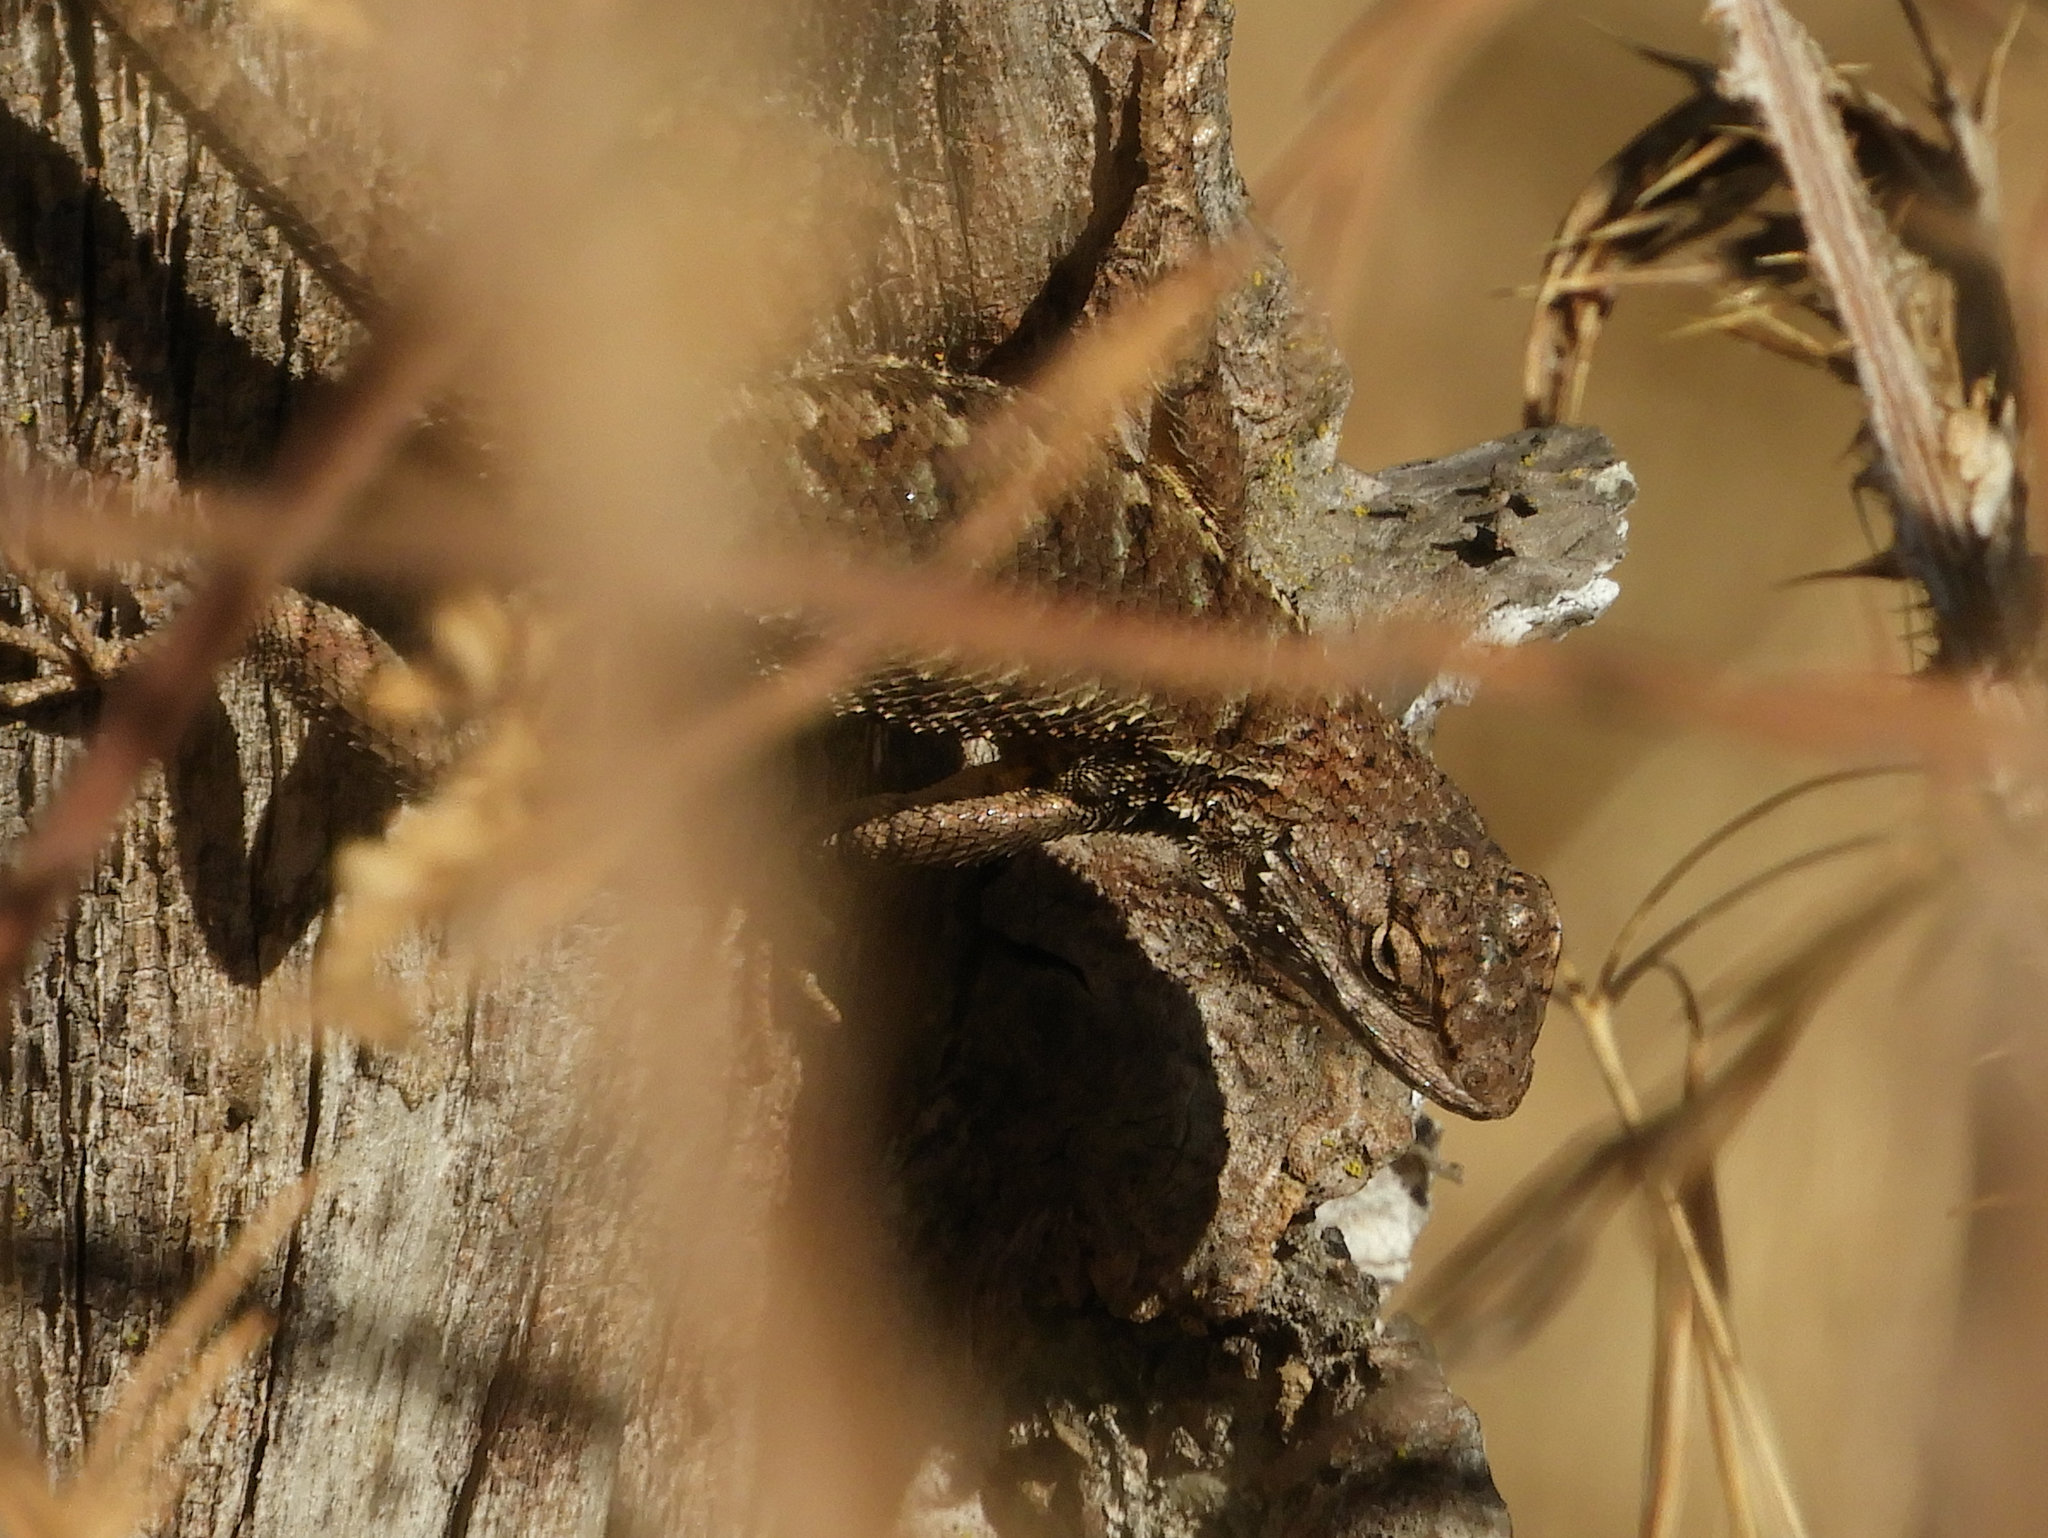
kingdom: Animalia
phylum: Chordata
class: Squamata
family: Phrynosomatidae
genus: Sceloporus
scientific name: Sceloporus occidentalis
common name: Western fence lizard
